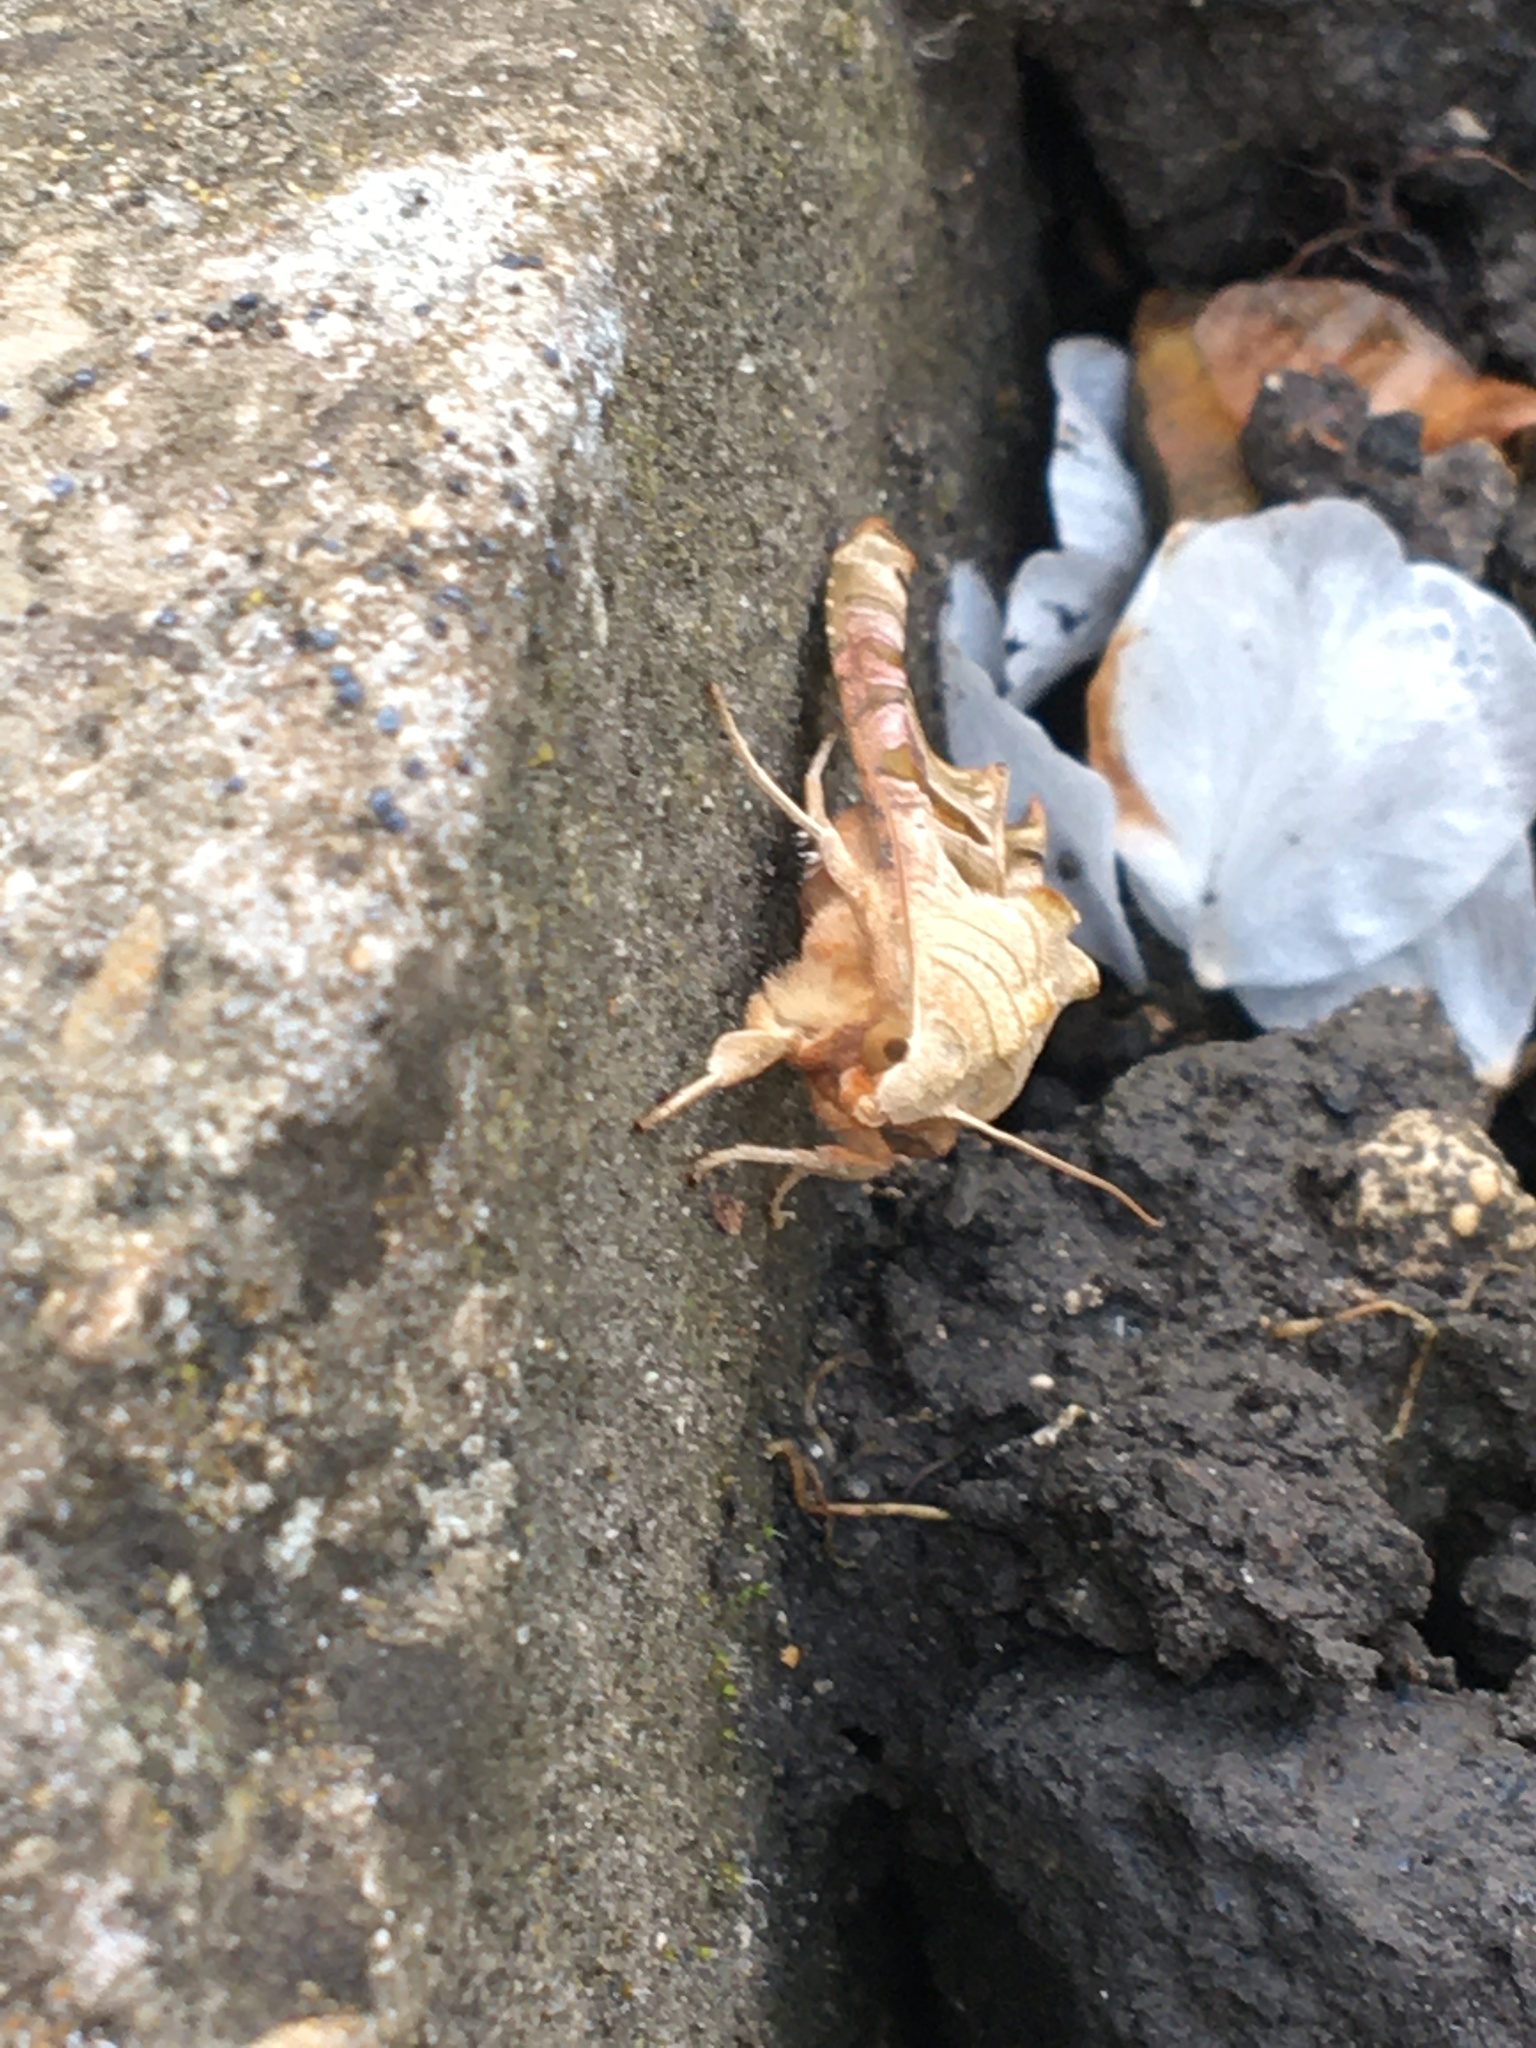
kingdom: Animalia
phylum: Arthropoda
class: Insecta
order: Lepidoptera
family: Noctuidae
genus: Phlogophora
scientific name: Phlogophora meticulosa
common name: Angle shades
